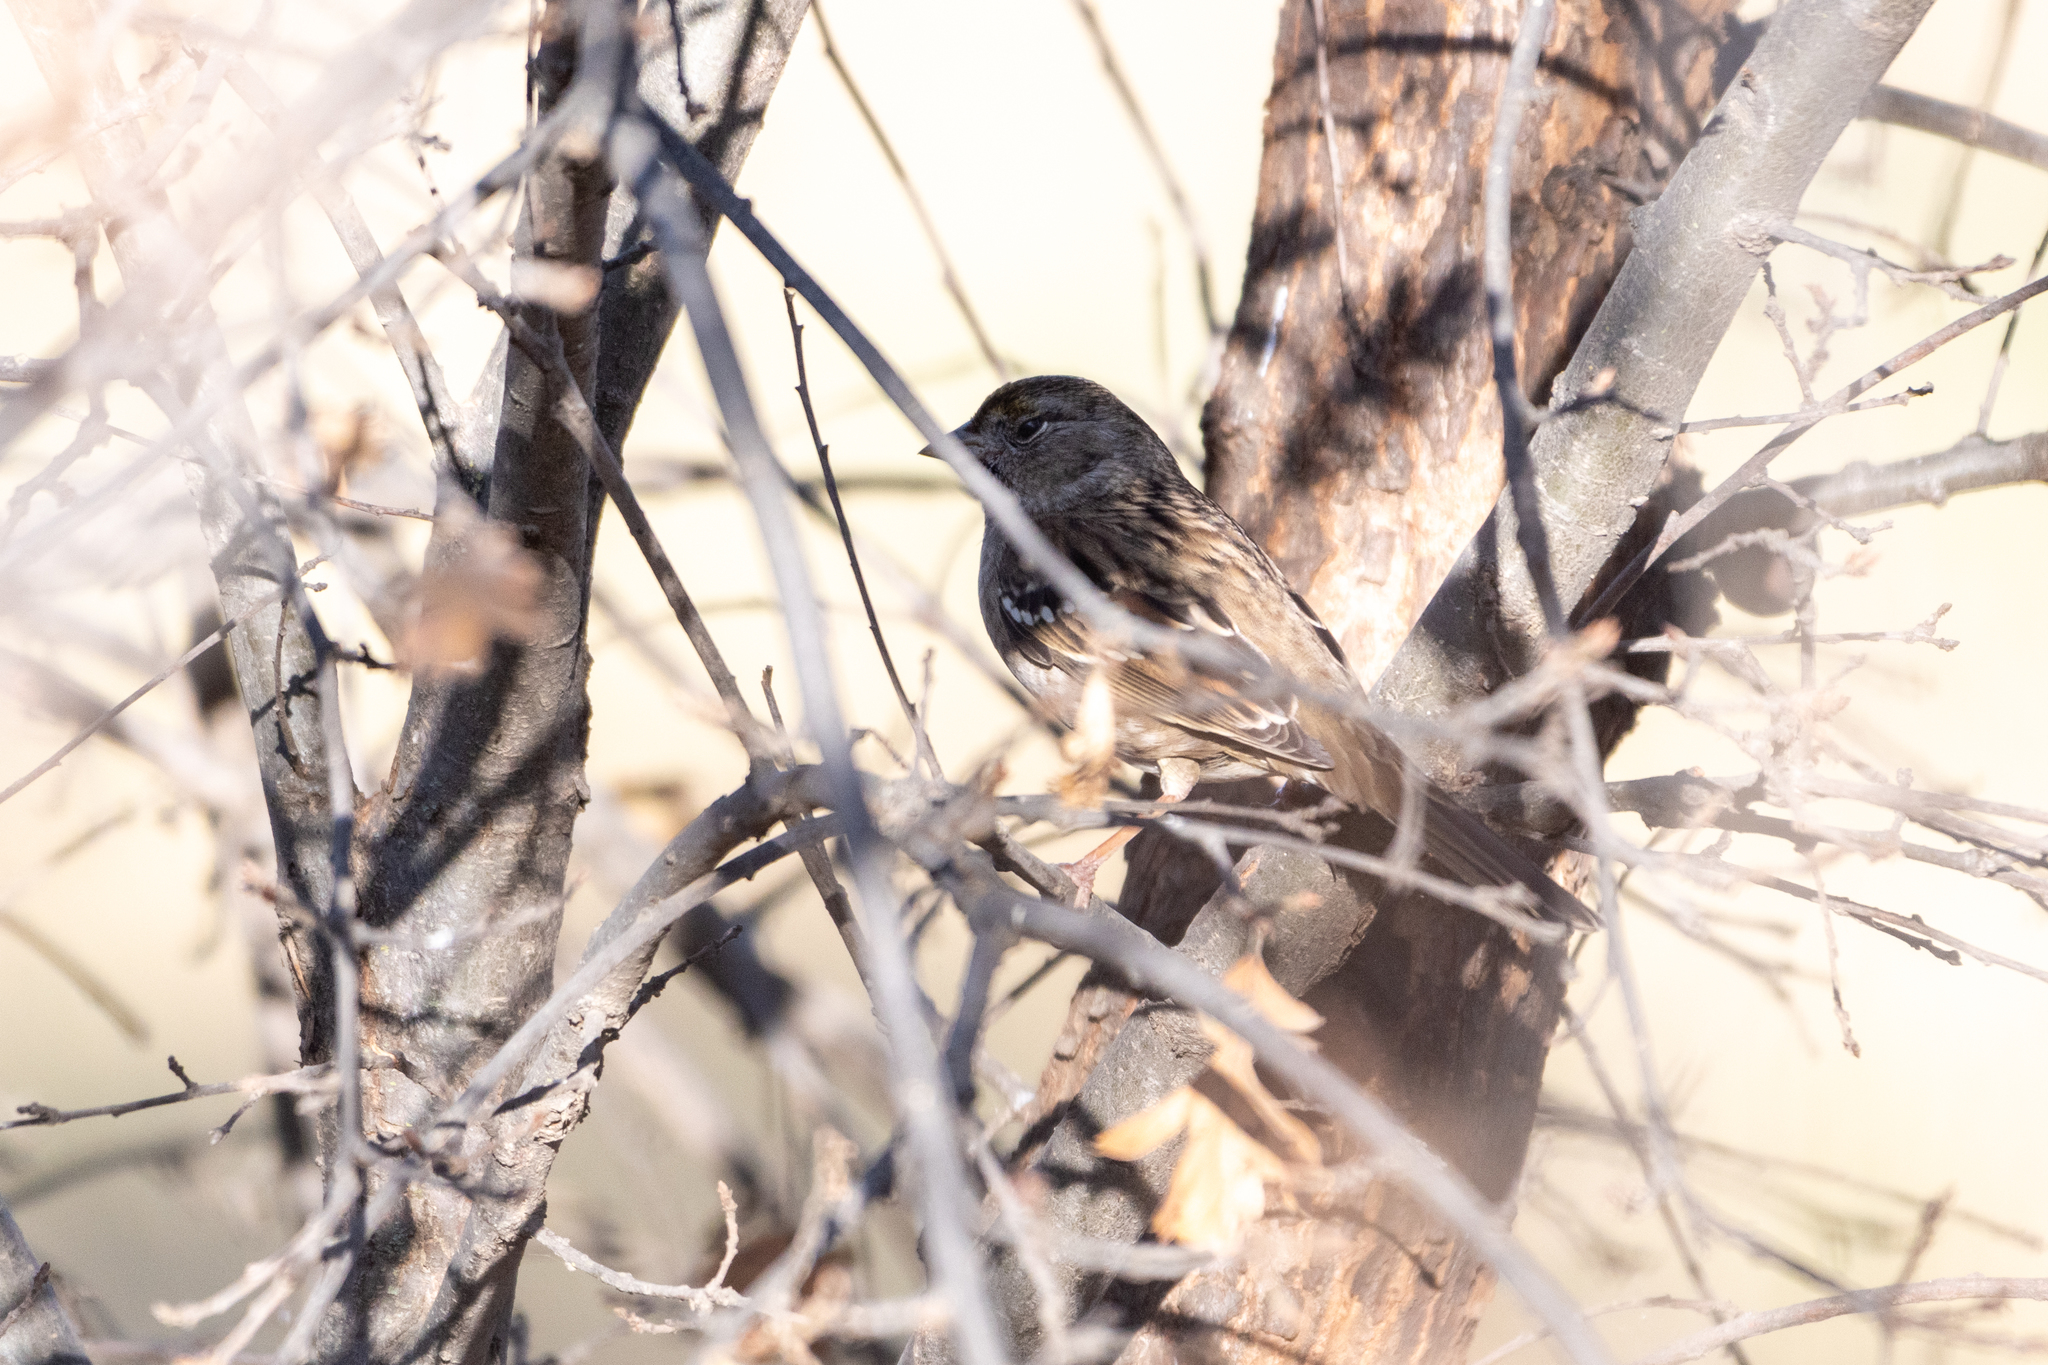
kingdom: Animalia
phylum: Chordata
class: Aves
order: Passeriformes
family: Passerellidae
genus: Zonotrichia
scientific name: Zonotrichia atricapilla
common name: Golden-crowned sparrow
